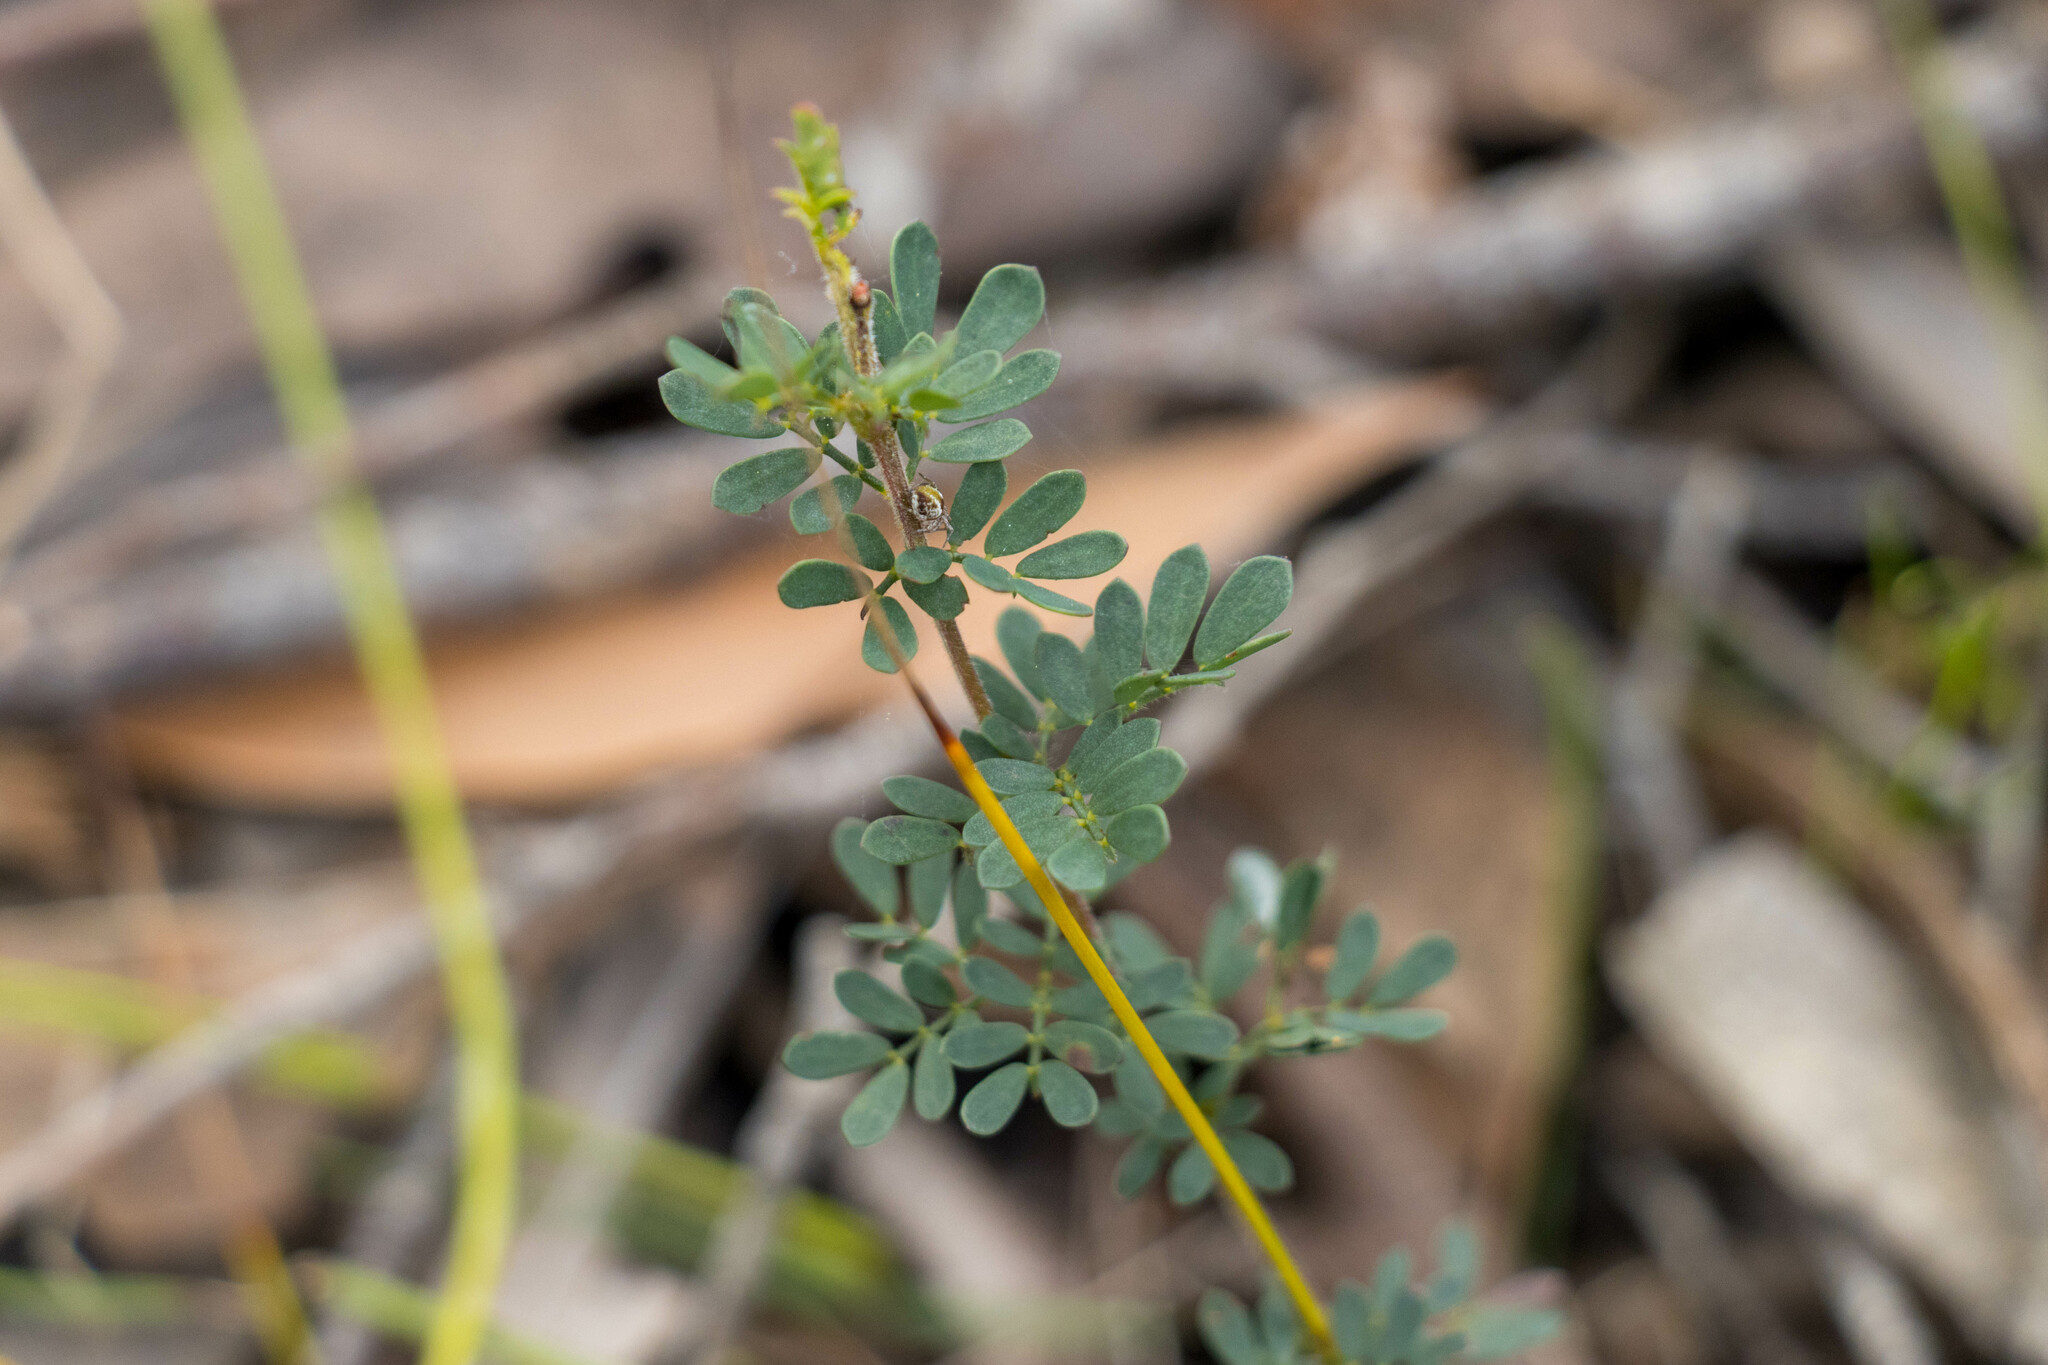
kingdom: Plantae
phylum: Tracheophyta
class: Magnoliopsida
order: Fabales
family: Fabaceae
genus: Acacia
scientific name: Acacia mitchellii
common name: Mitchell's wattle
